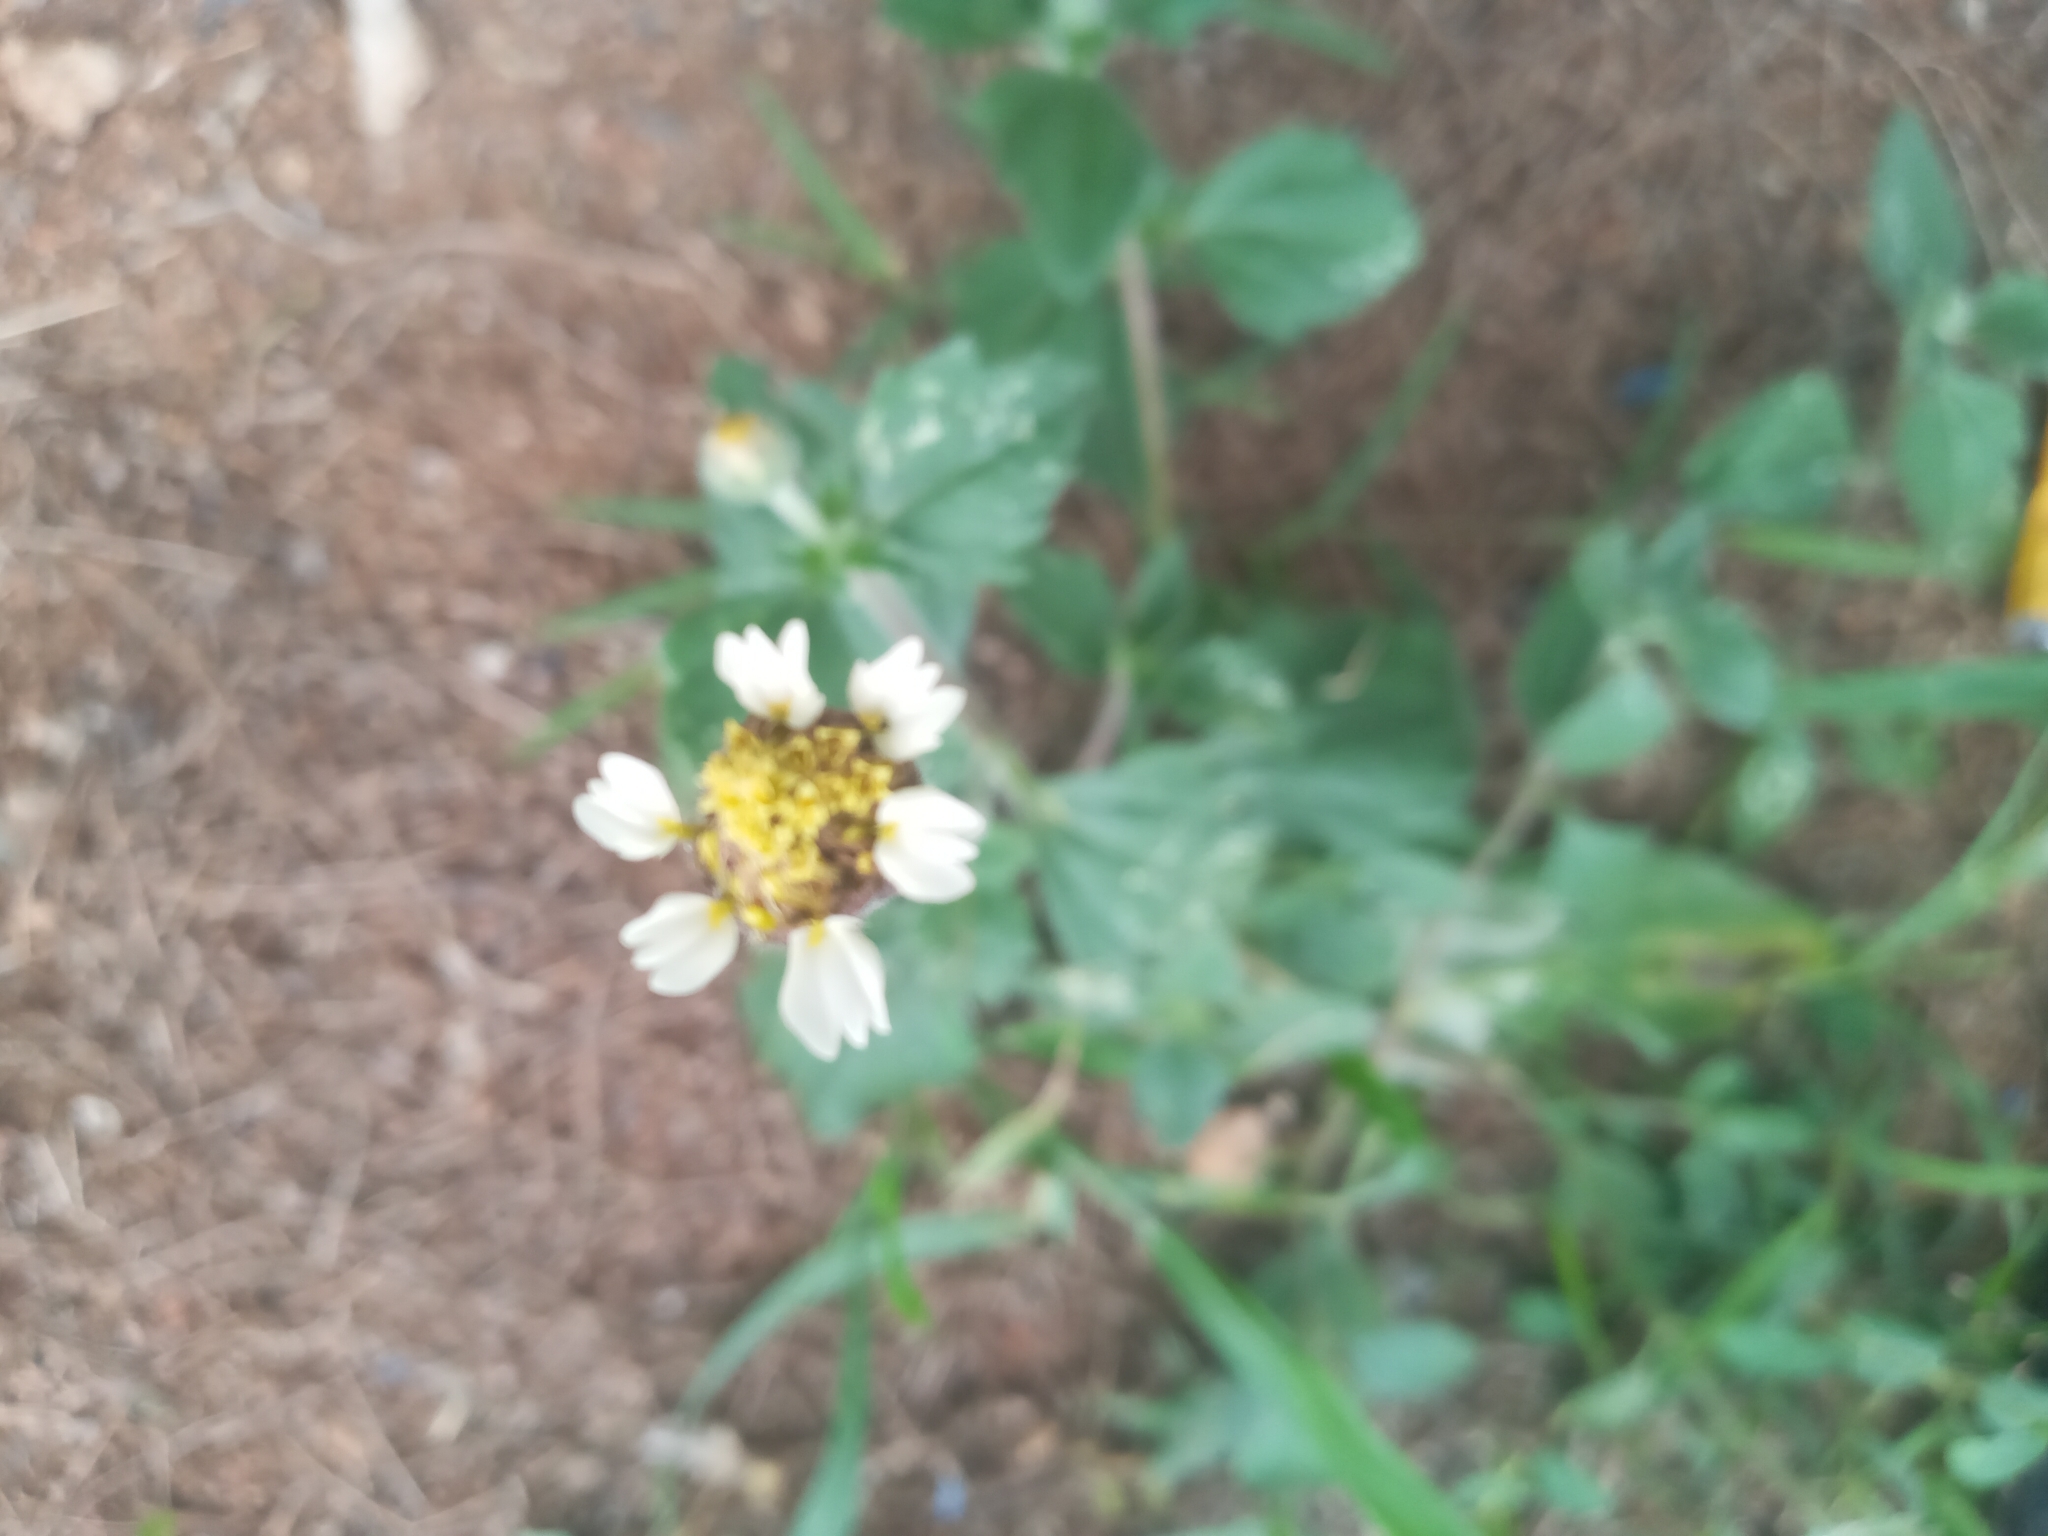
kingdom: Plantae
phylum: Tracheophyta
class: Magnoliopsida
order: Asterales
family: Asteraceae
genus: Tridax
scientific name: Tridax procumbens
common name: Coatbuttons
